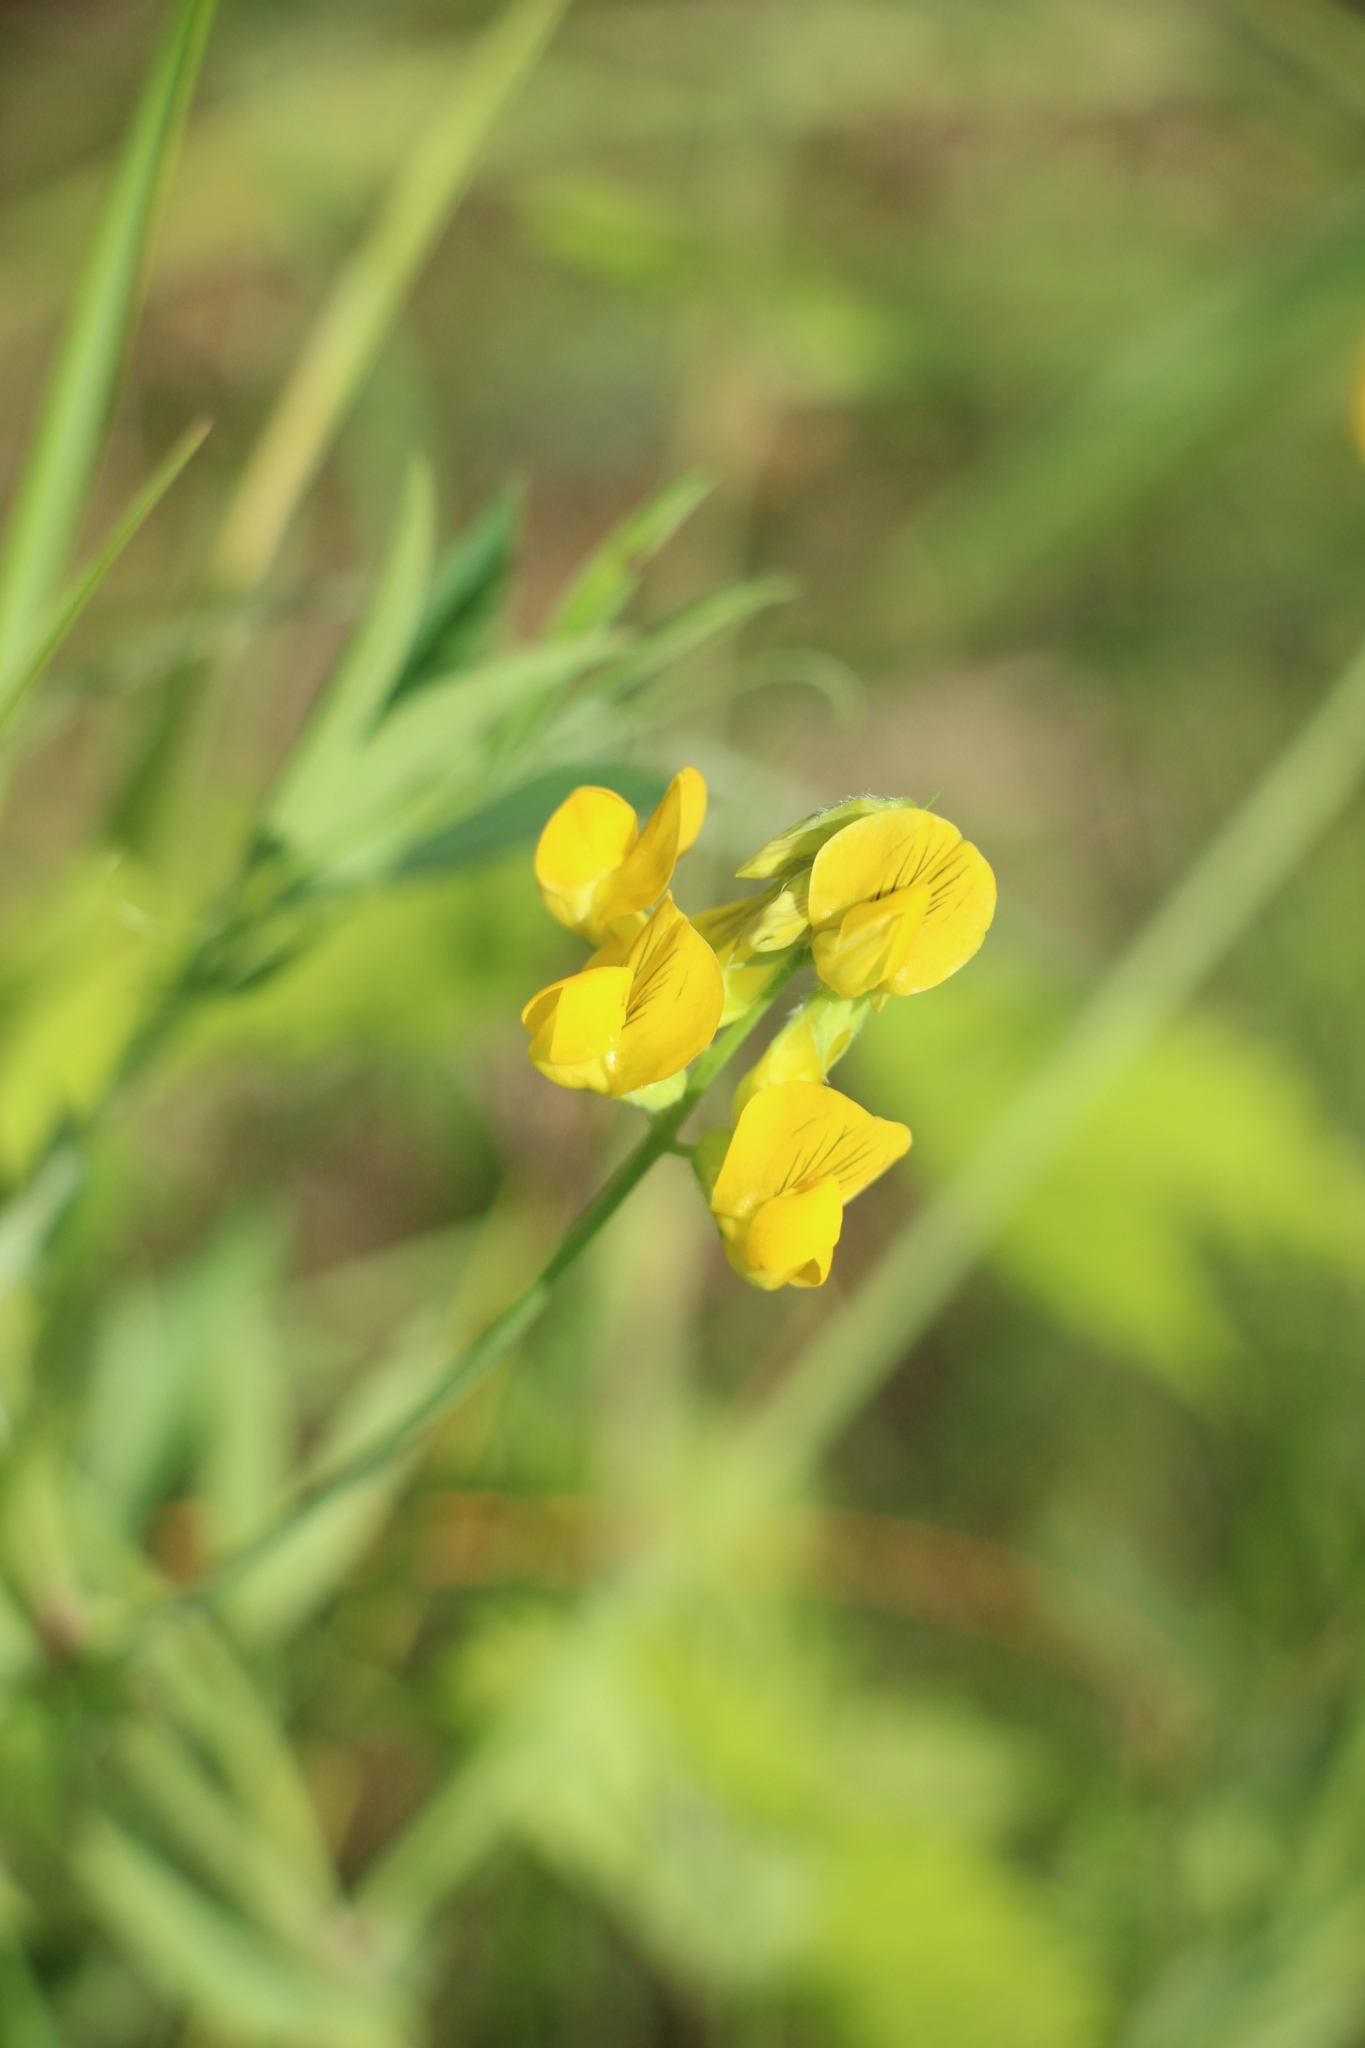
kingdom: Plantae
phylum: Tracheophyta
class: Magnoliopsida
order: Fabales
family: Fabaceae
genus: Lathyrus
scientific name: Lathyrus pratensis
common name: Meadow vetchling
